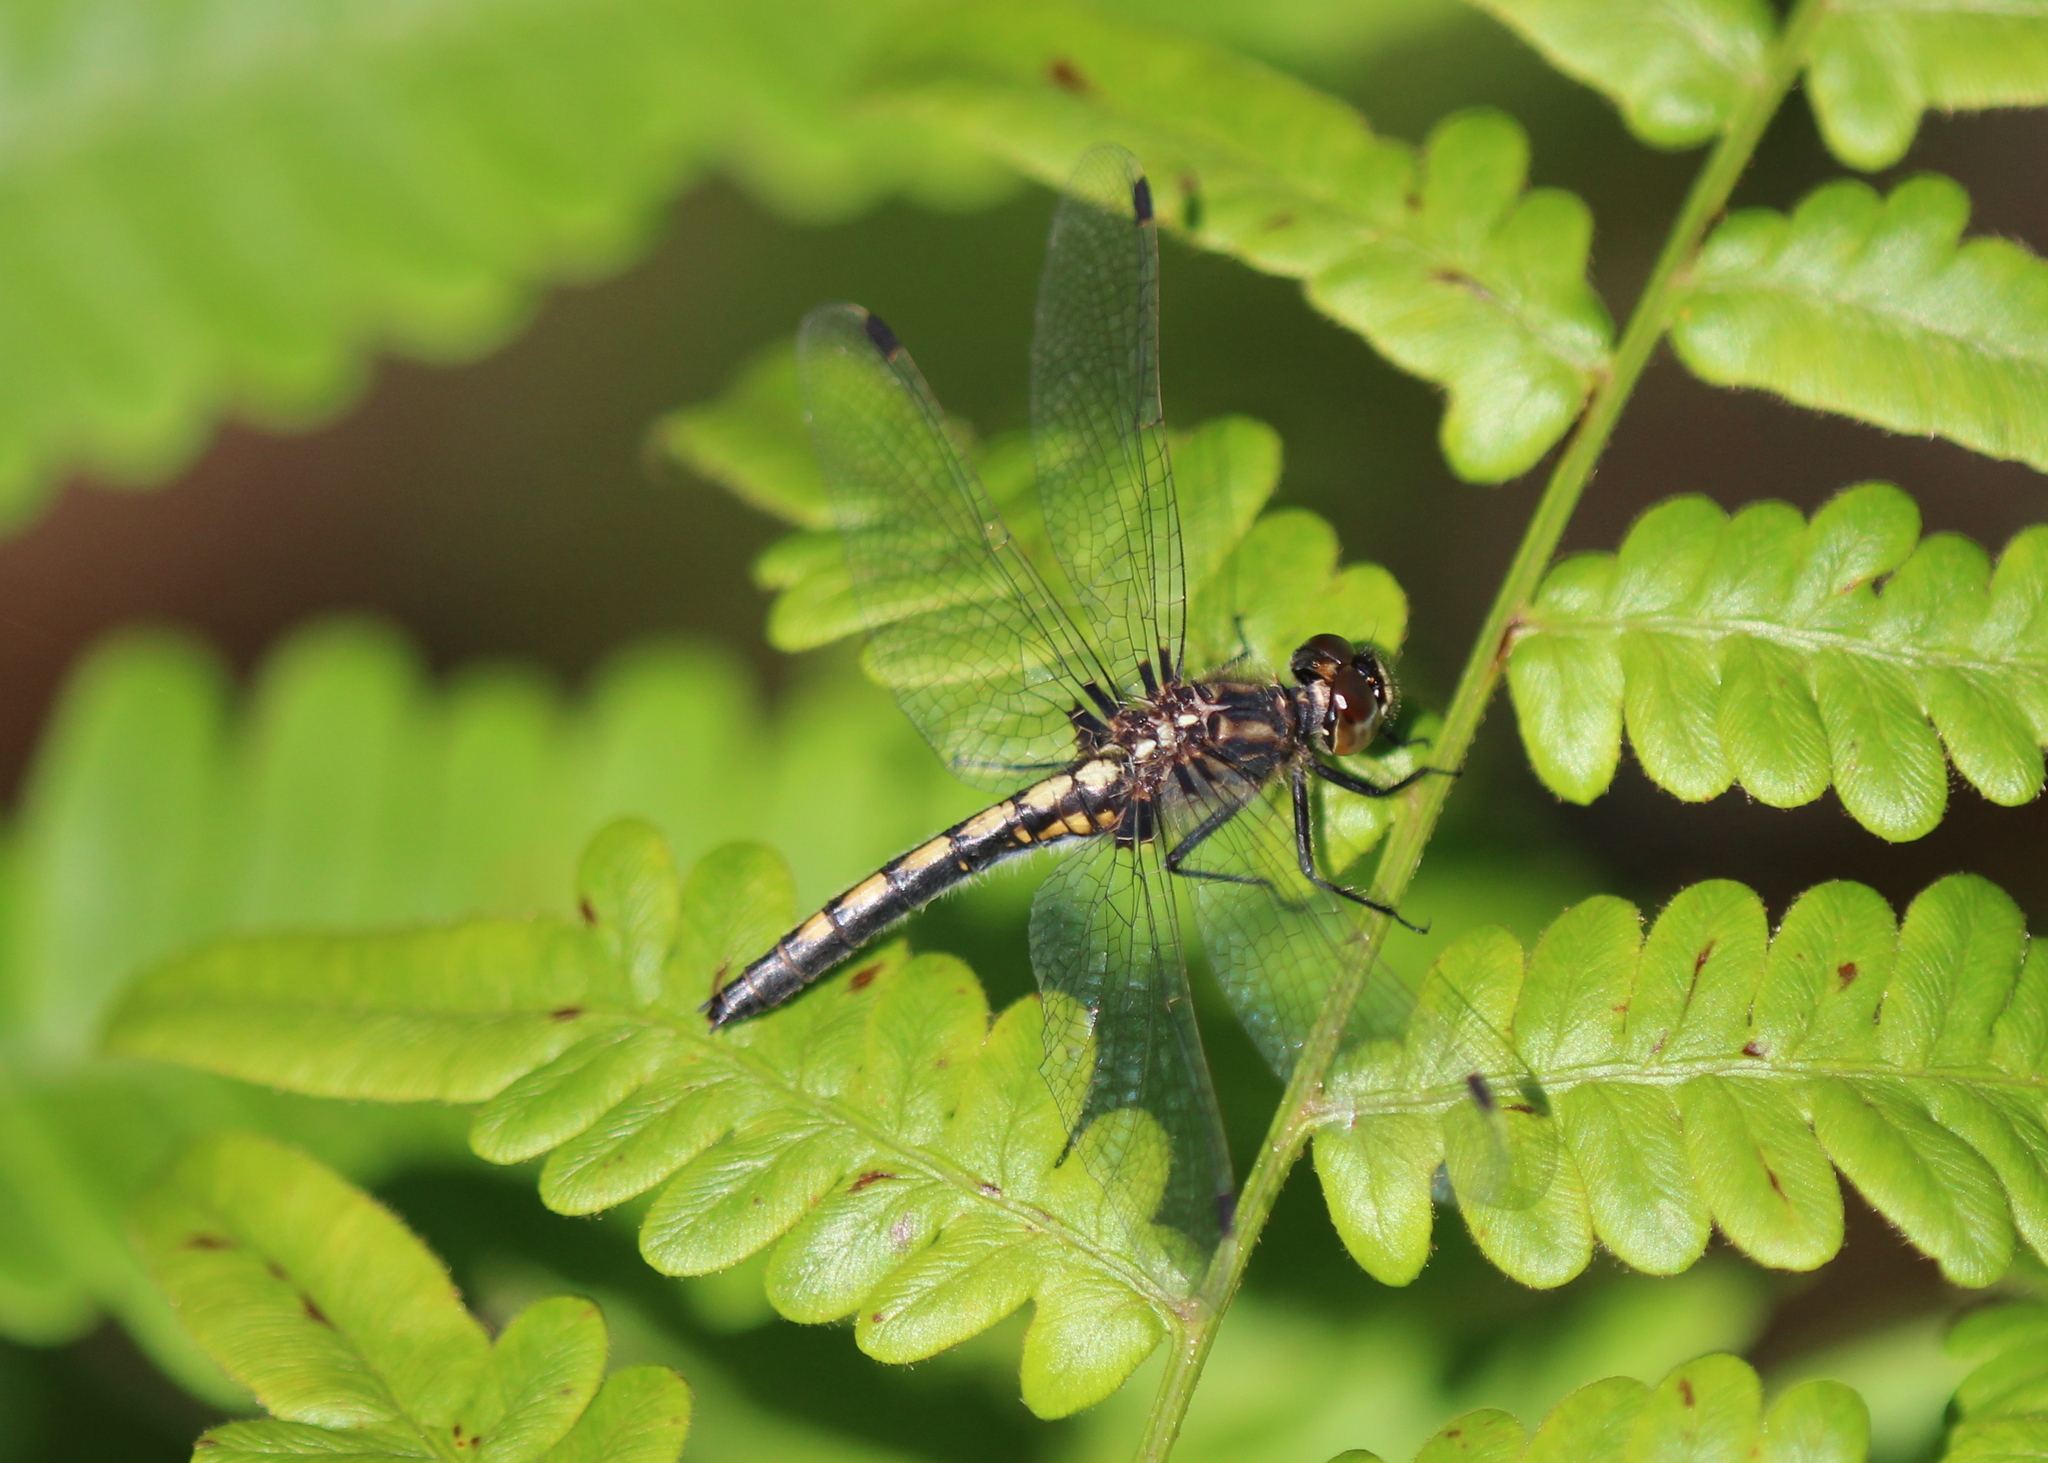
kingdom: Animalia
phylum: Arthropoda
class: Insecta
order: Odonata
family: Libellulidae
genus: Leucorrhinia
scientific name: Leucorrhinia hudsonica
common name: Hudsonian whiteface
